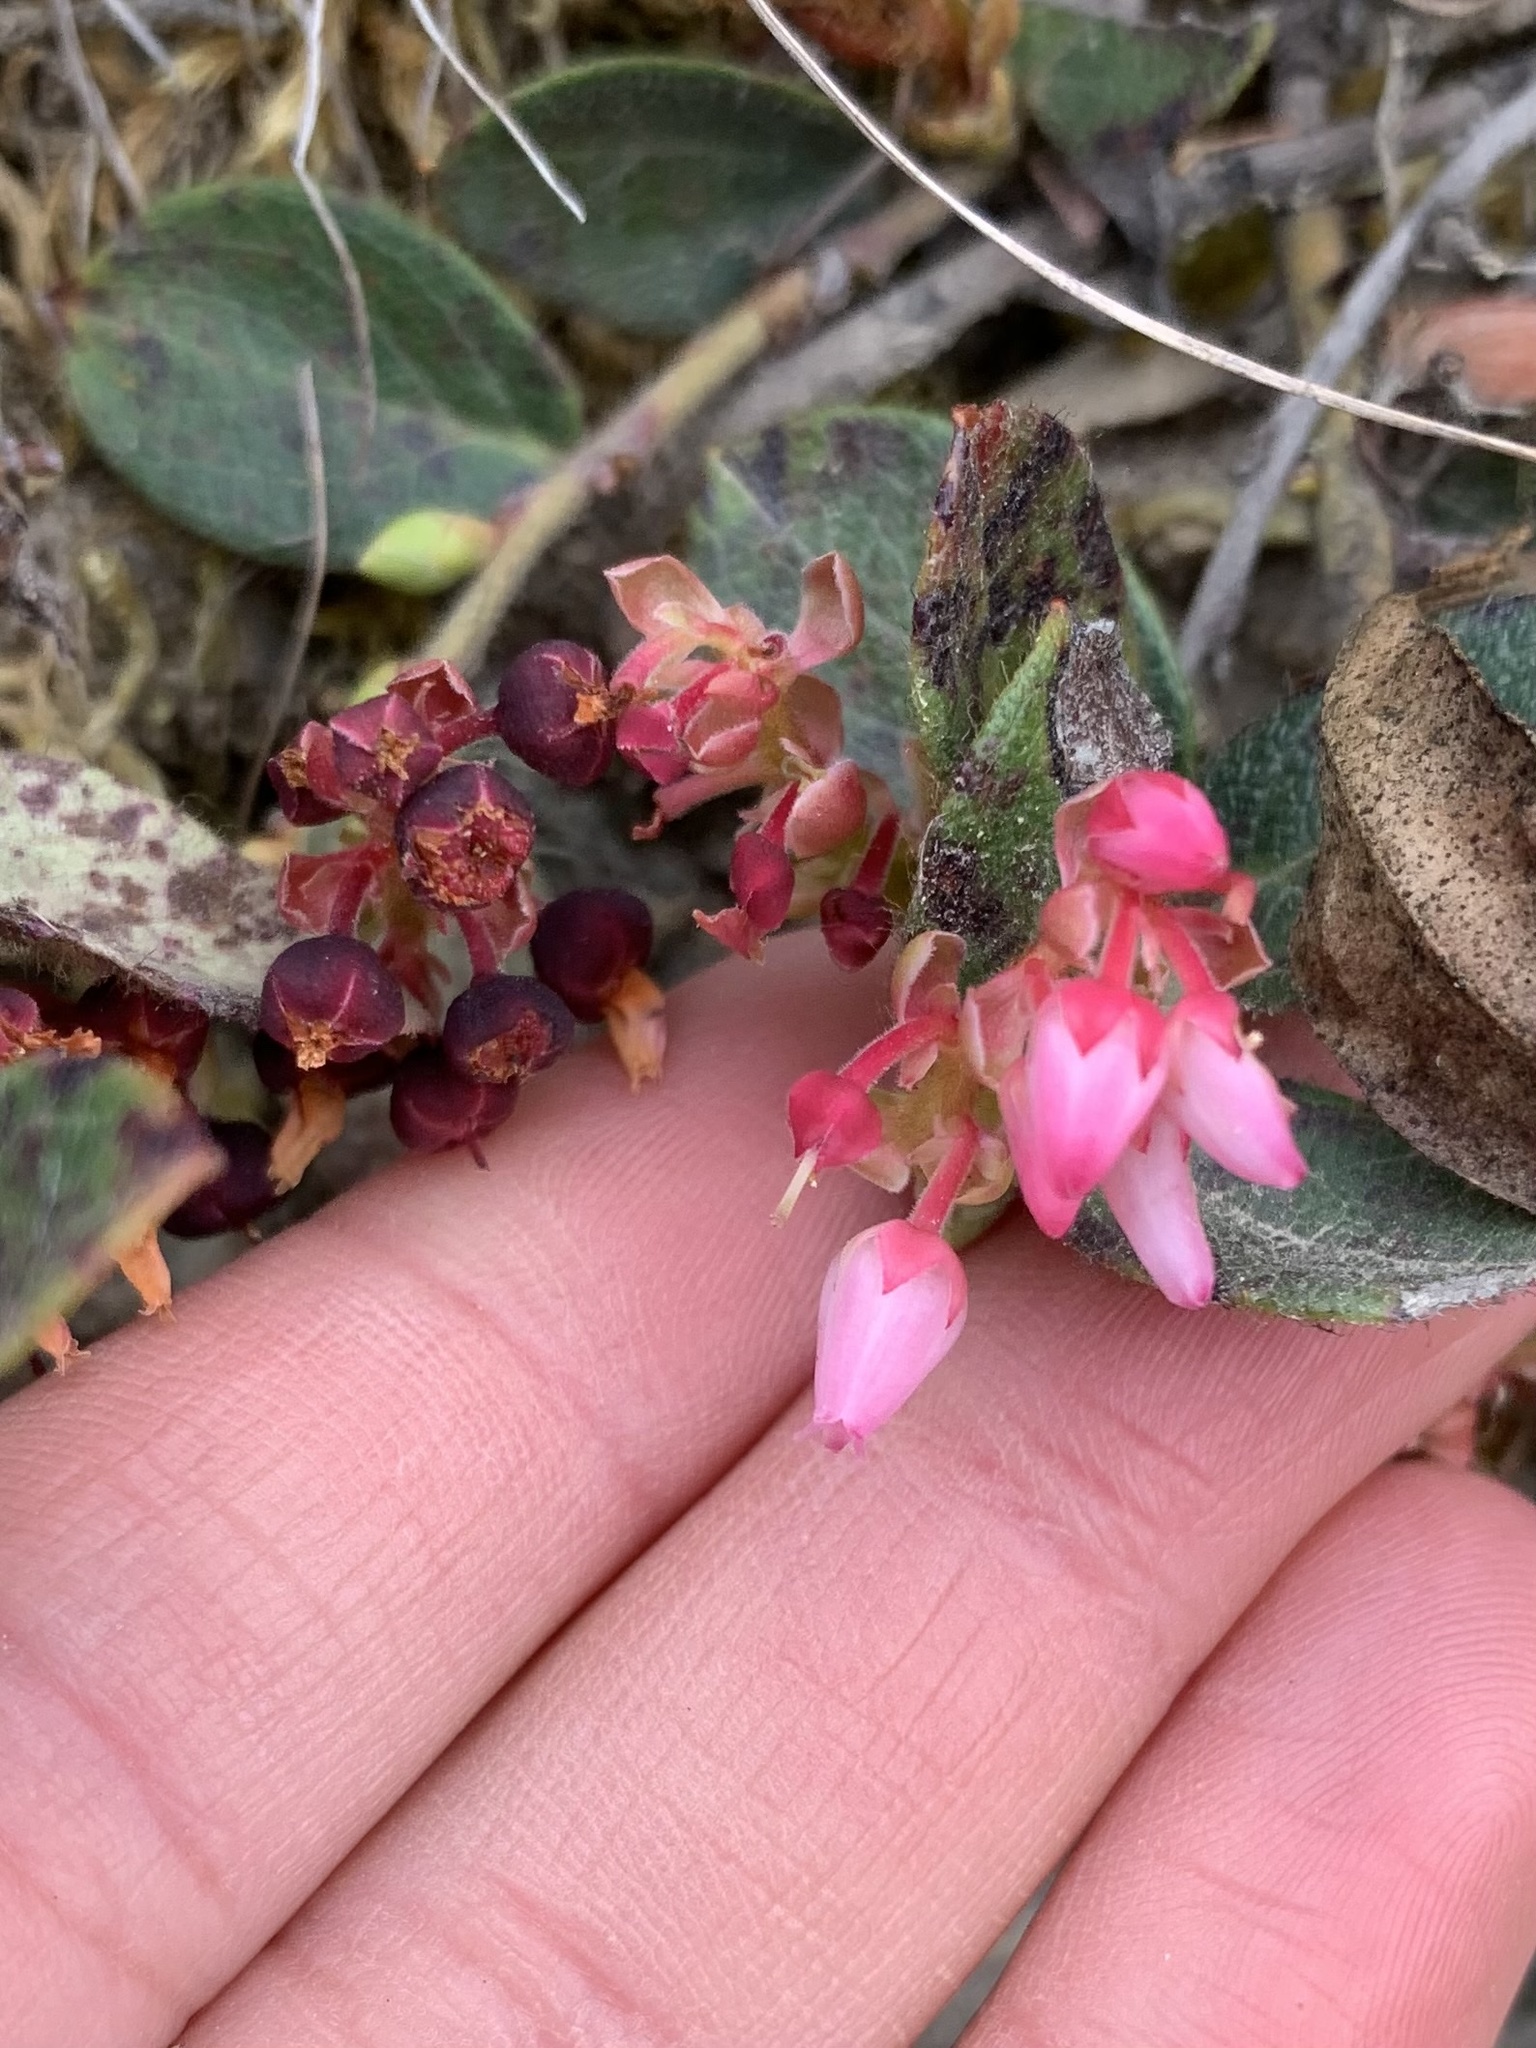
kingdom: Plantae
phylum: Tracheophyta
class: Magnoliopsida
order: Ericales
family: Ericaceae
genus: Gaultheria
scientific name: Gaultheria glomerata
